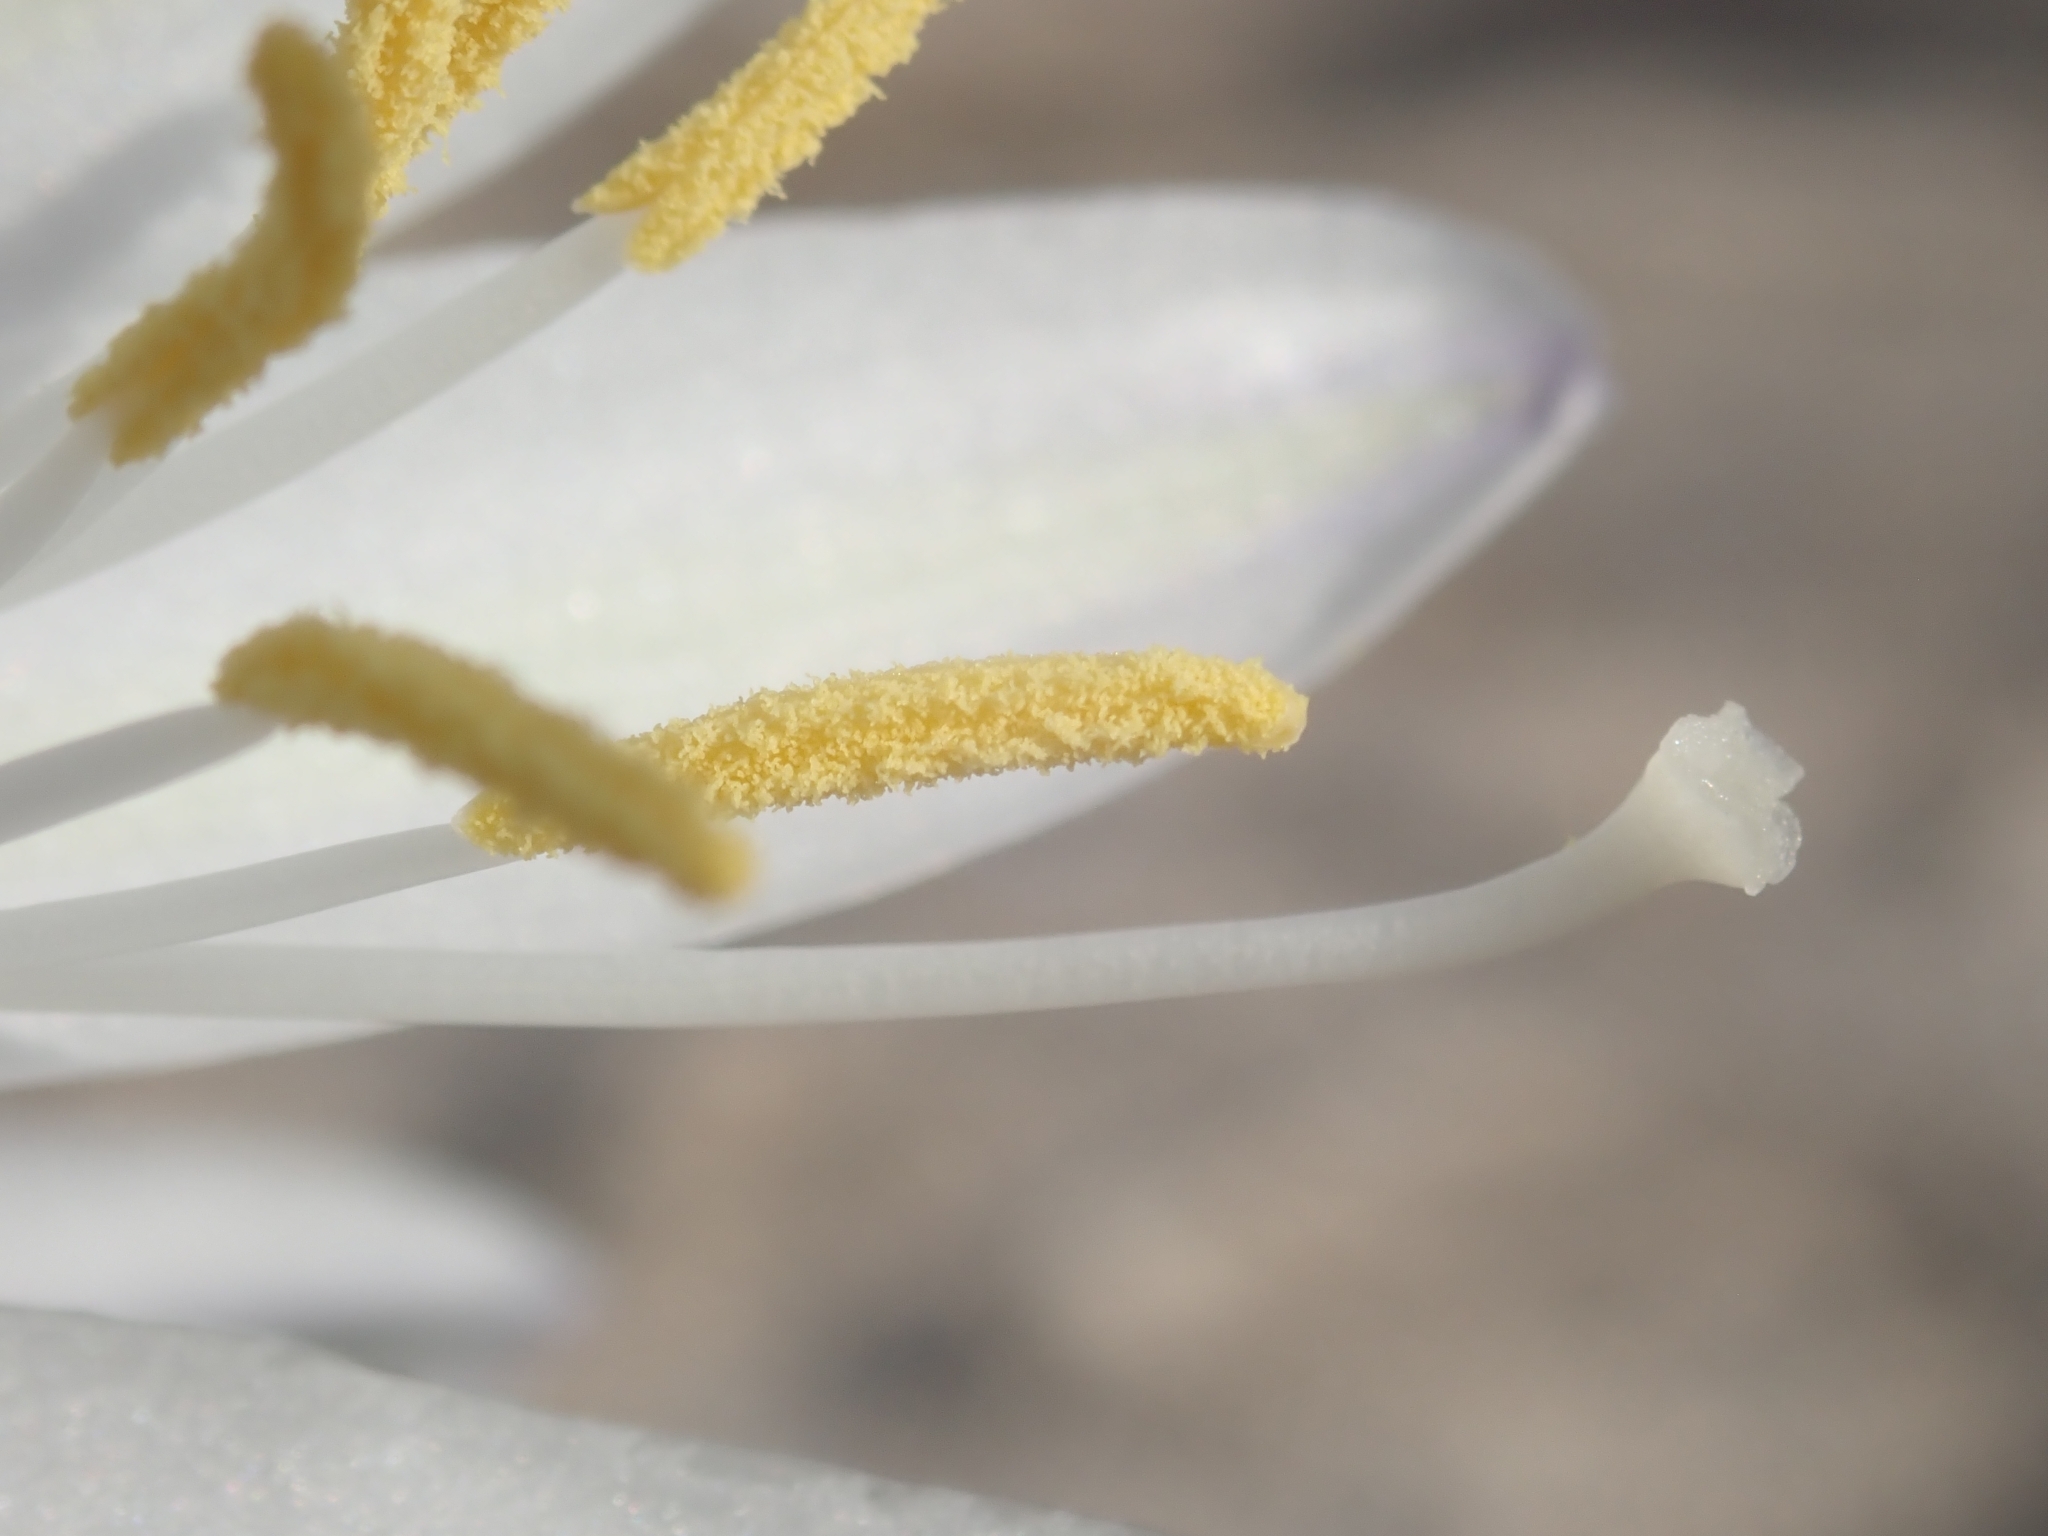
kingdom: Plantae
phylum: Tracheophyta
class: Liliopsida
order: Asparagales
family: Asparagaceae
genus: Hesperocallis
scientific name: Hesperocallis undulata
